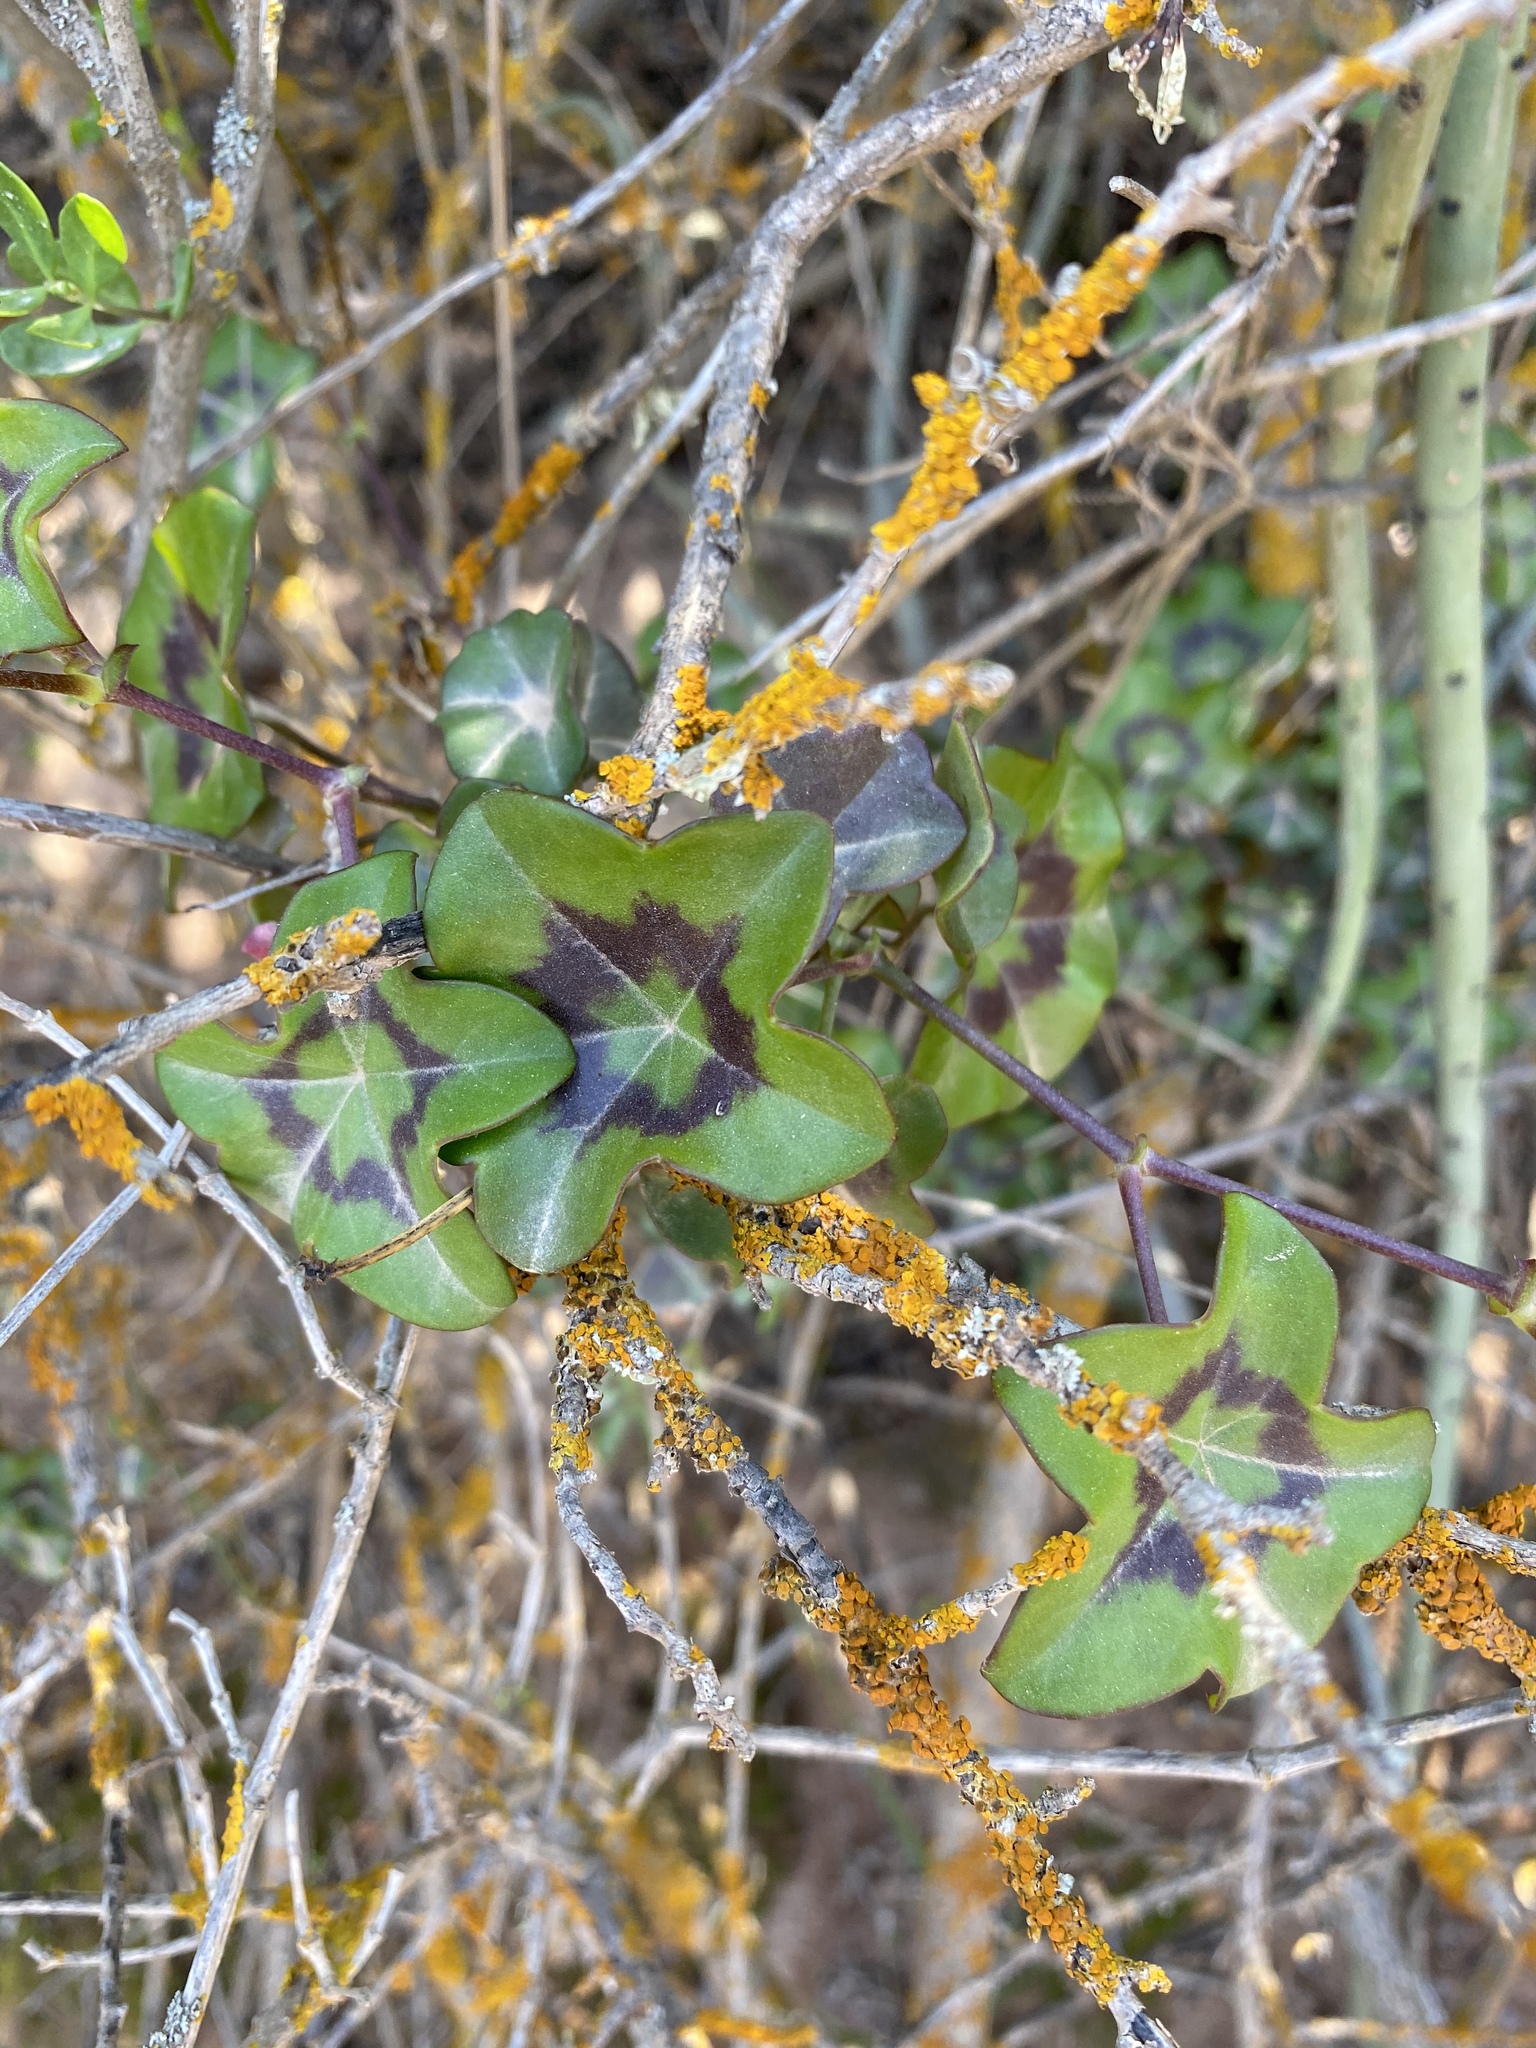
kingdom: Plantae
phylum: Tracheophyta
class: Magnoliopsida
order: Geraniales
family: Geraniaceae
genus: Pelargonium
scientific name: Pelargonium peltatum
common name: Ivyleaf geranium
